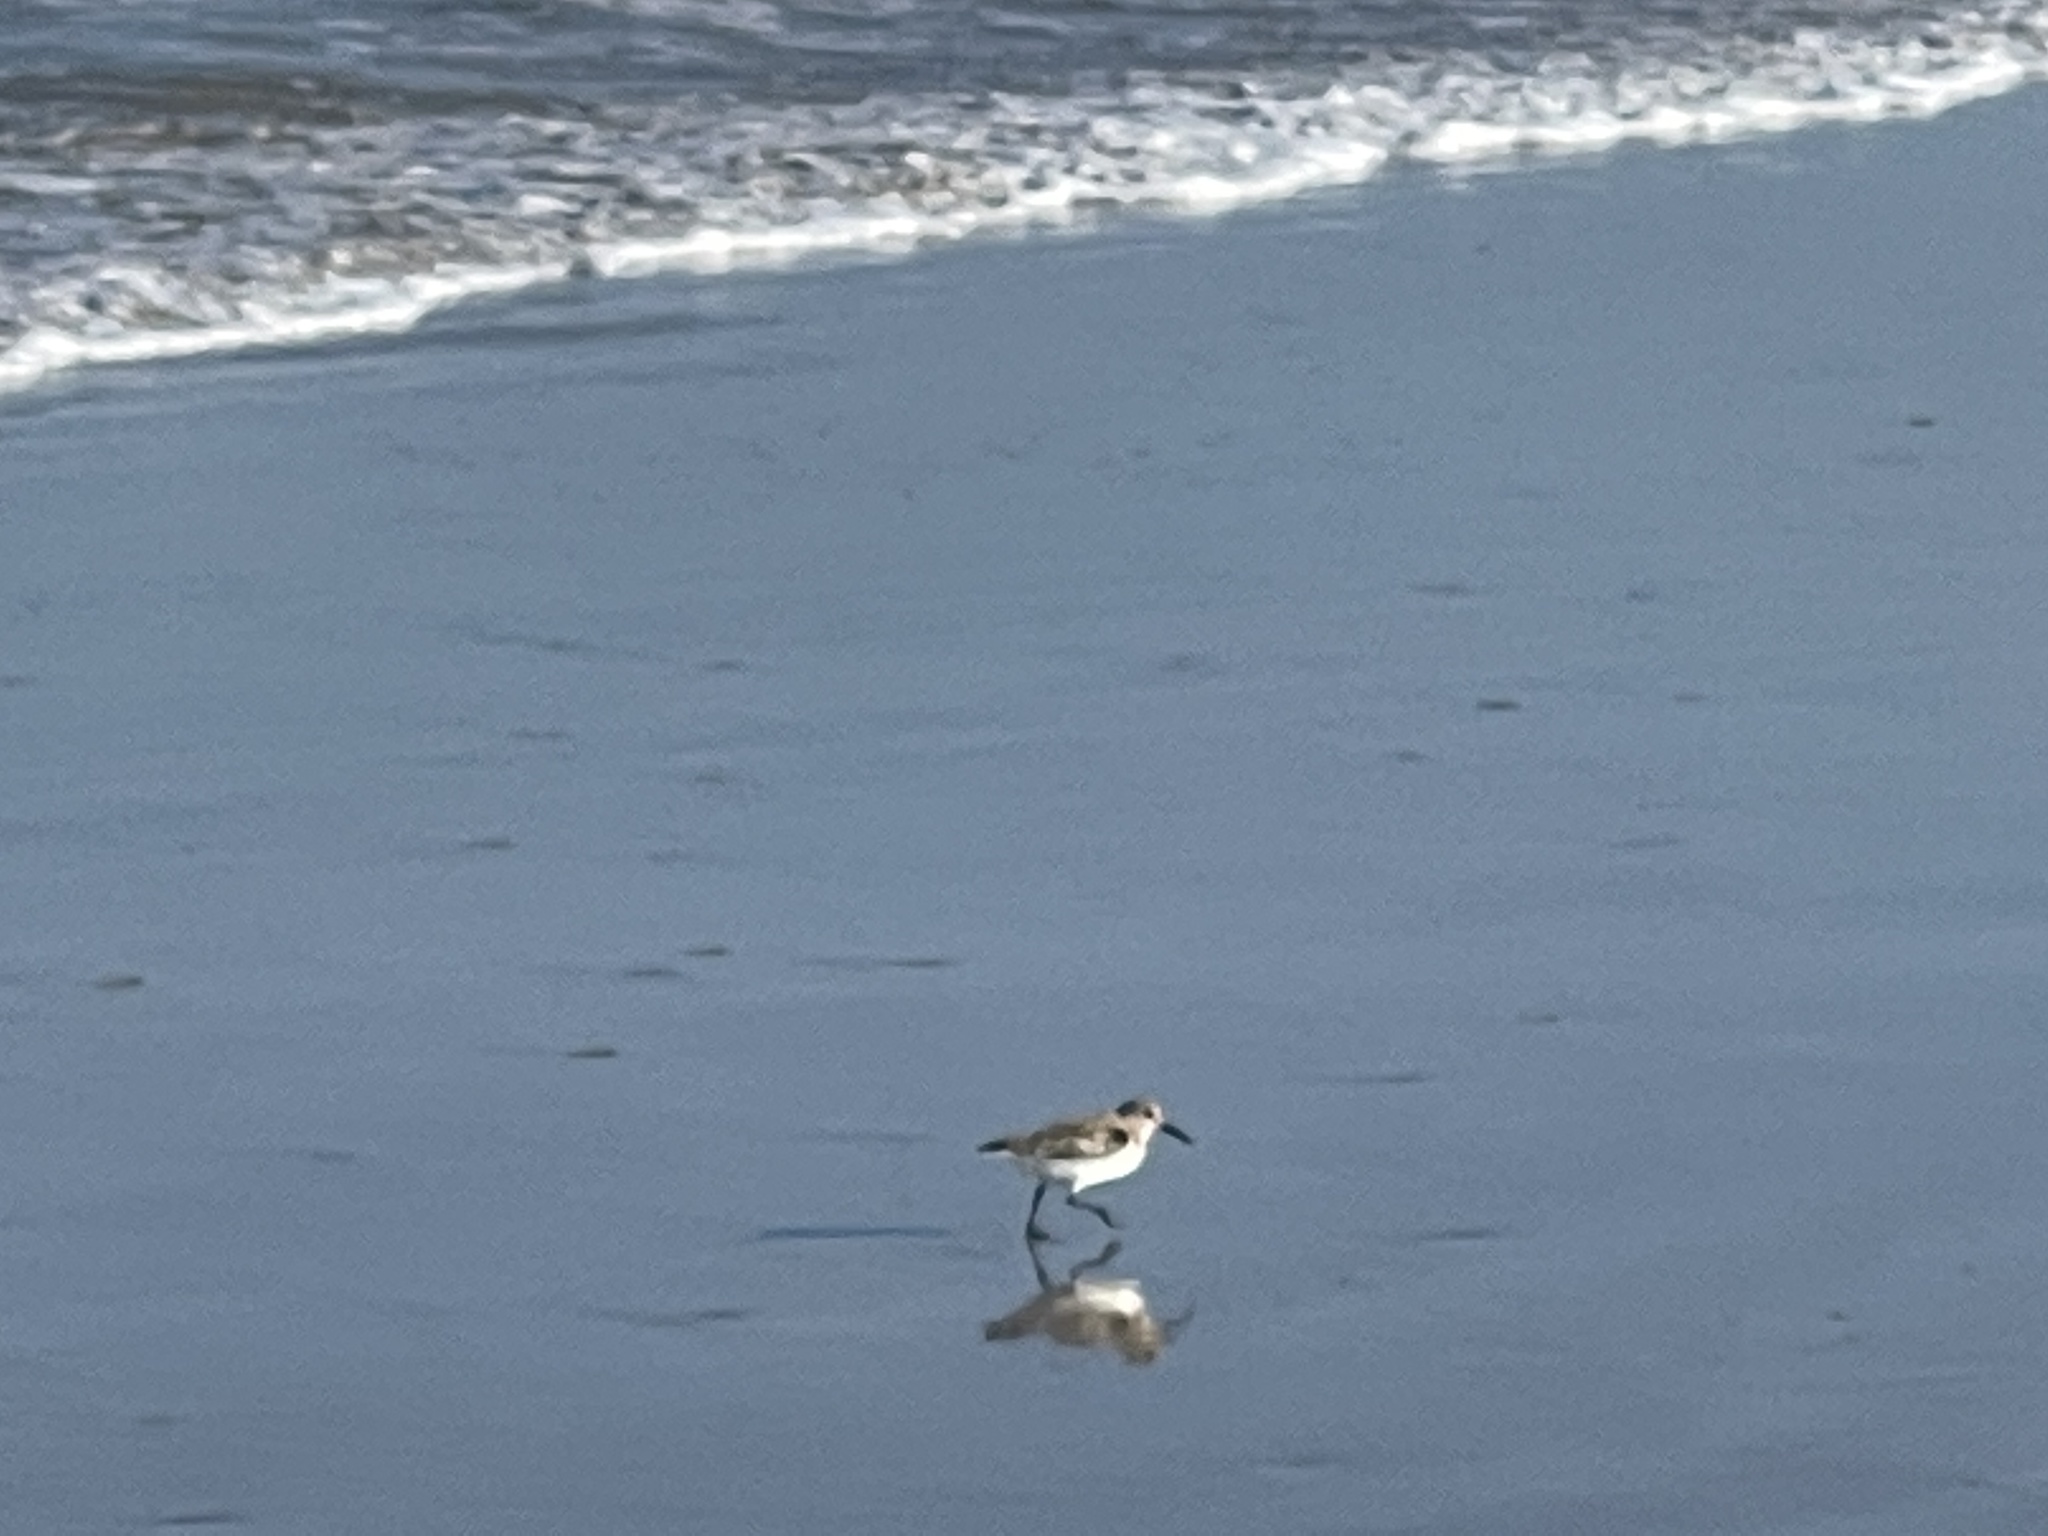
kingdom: Animalia
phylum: Chordata
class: Aves
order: Charadriiformes
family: Scolopacidae
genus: Calidris
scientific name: Calidris alba
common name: Sanderling
